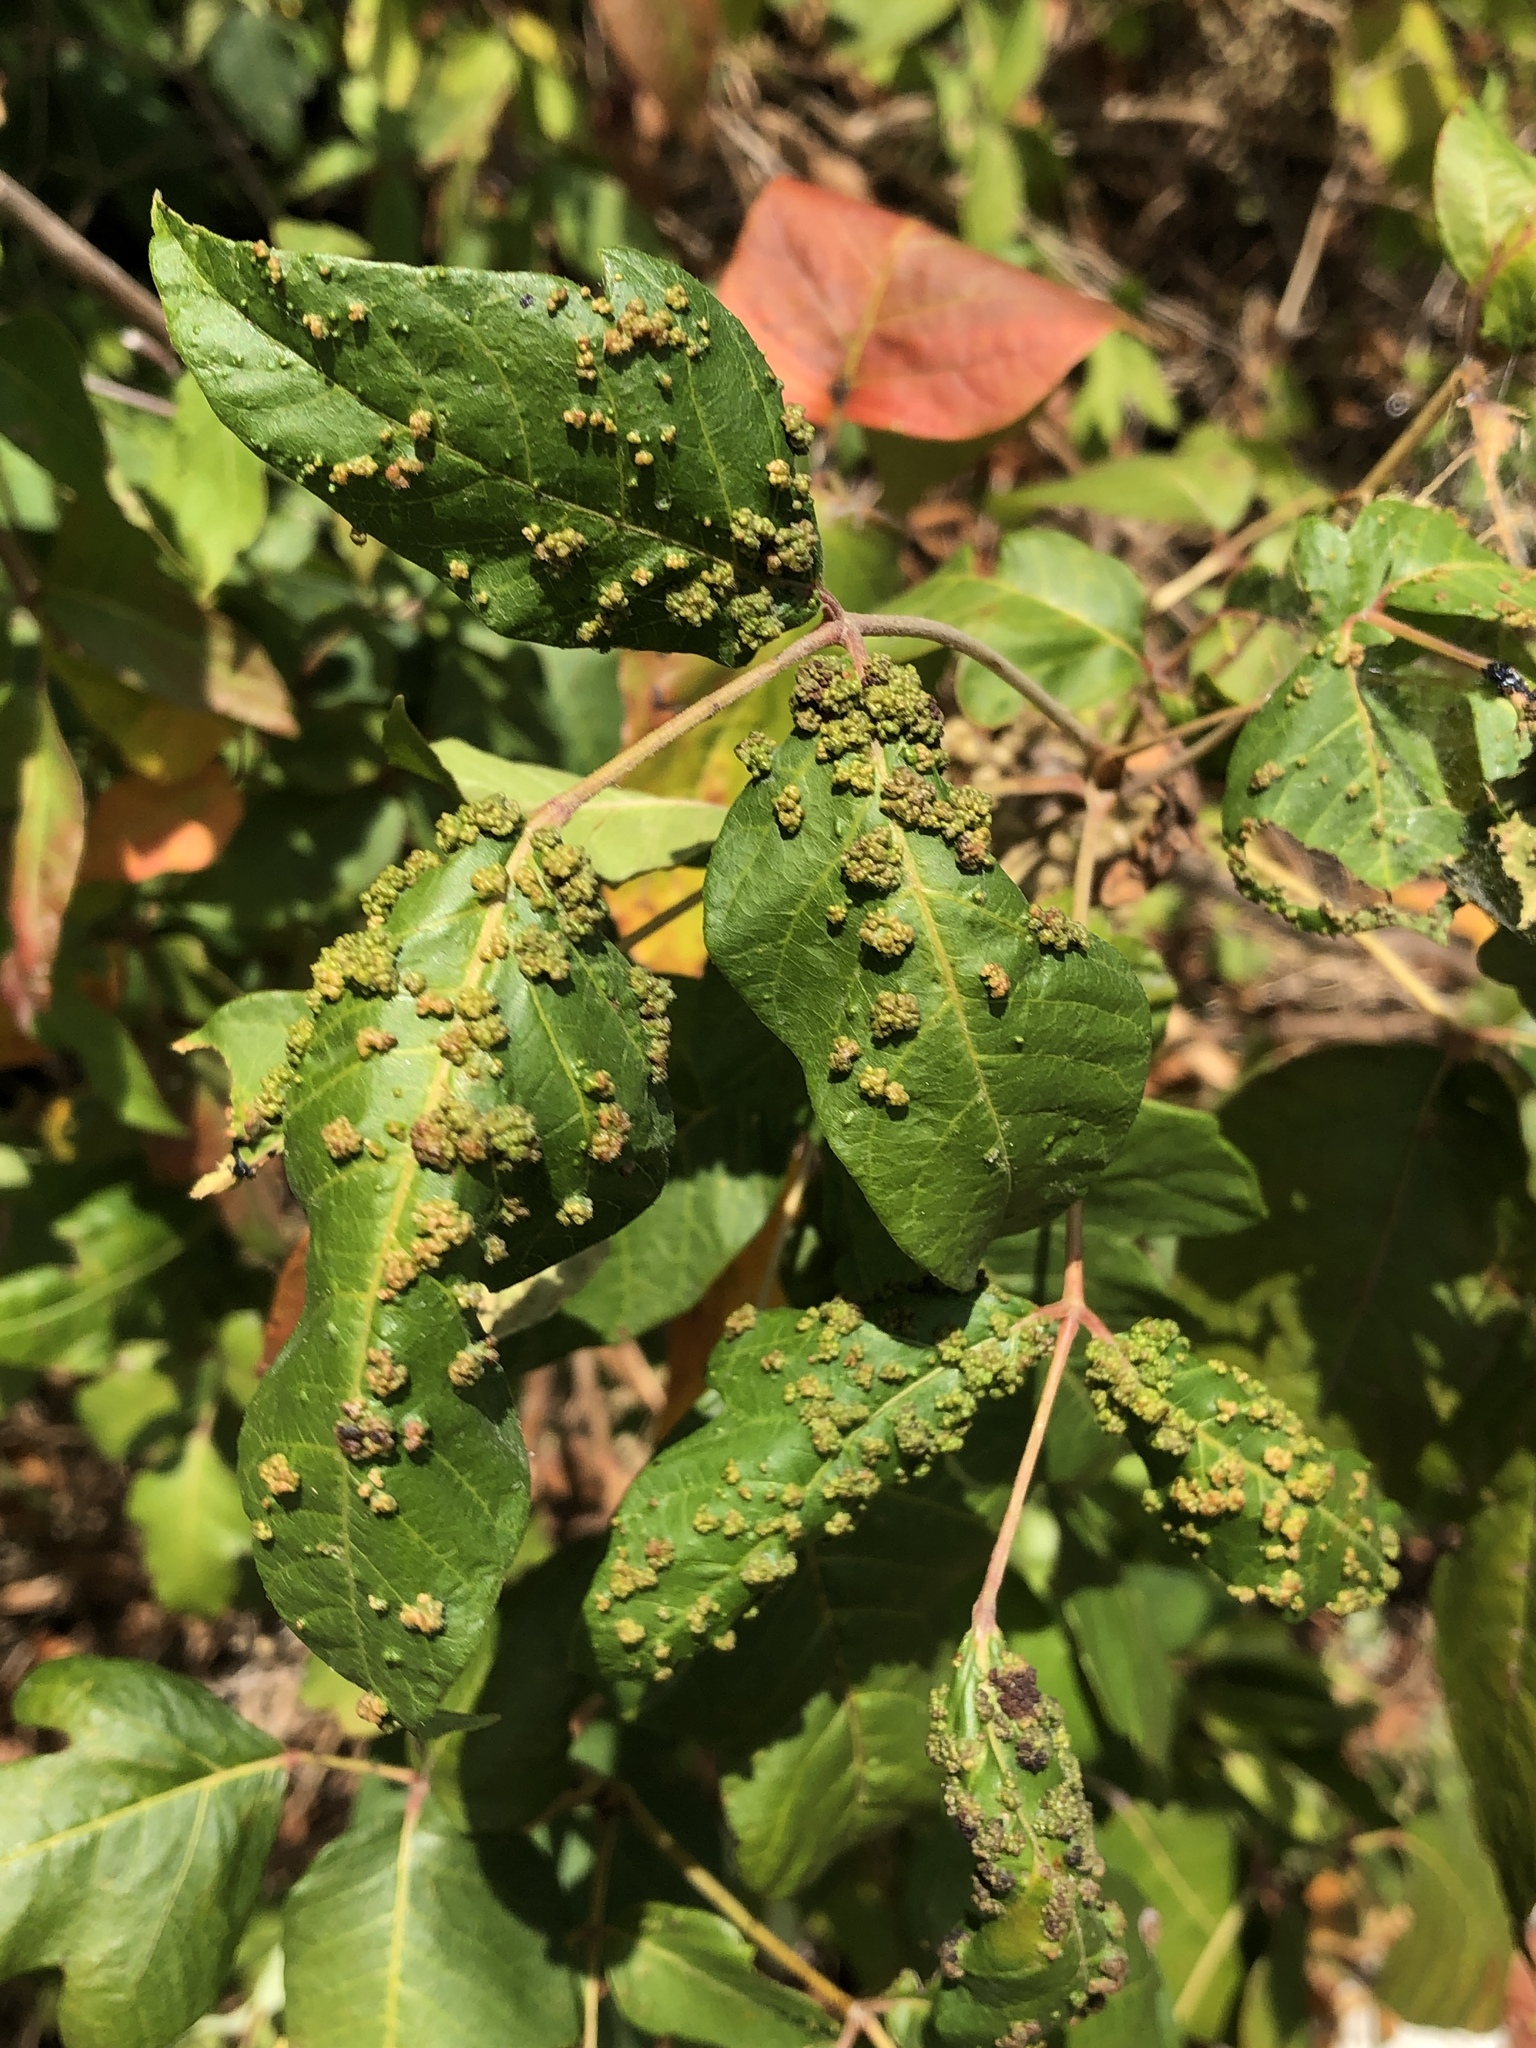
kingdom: Animalia
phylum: Arthropoda
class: Arachnida
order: Trombidiformes
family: Eriophyidae
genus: Aculops
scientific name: Aculops
